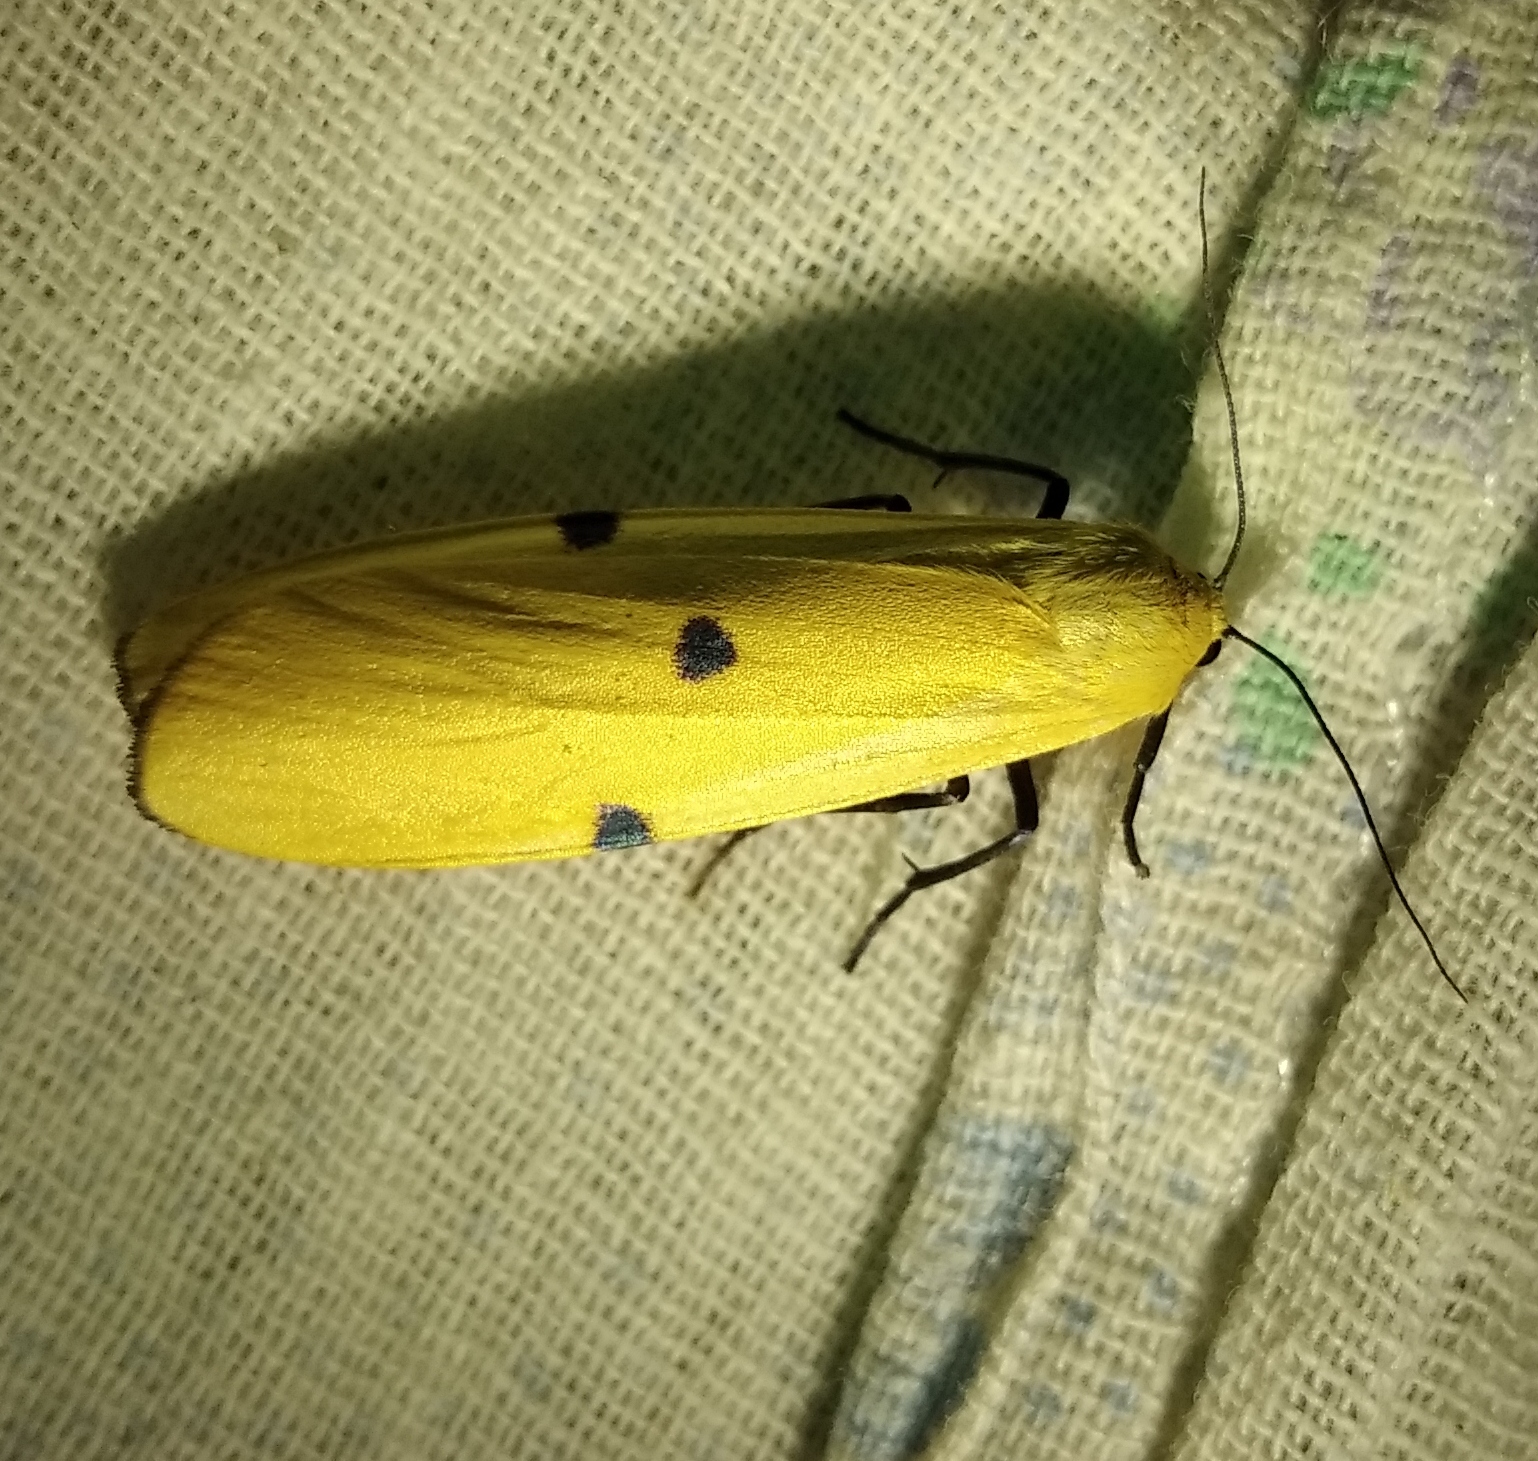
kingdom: Animalia
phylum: Arthropoda
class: Insecta
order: Lepidoptera
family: Erebidae
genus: Lithosia
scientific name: Lithosia quadra
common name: Four-spotted footman
